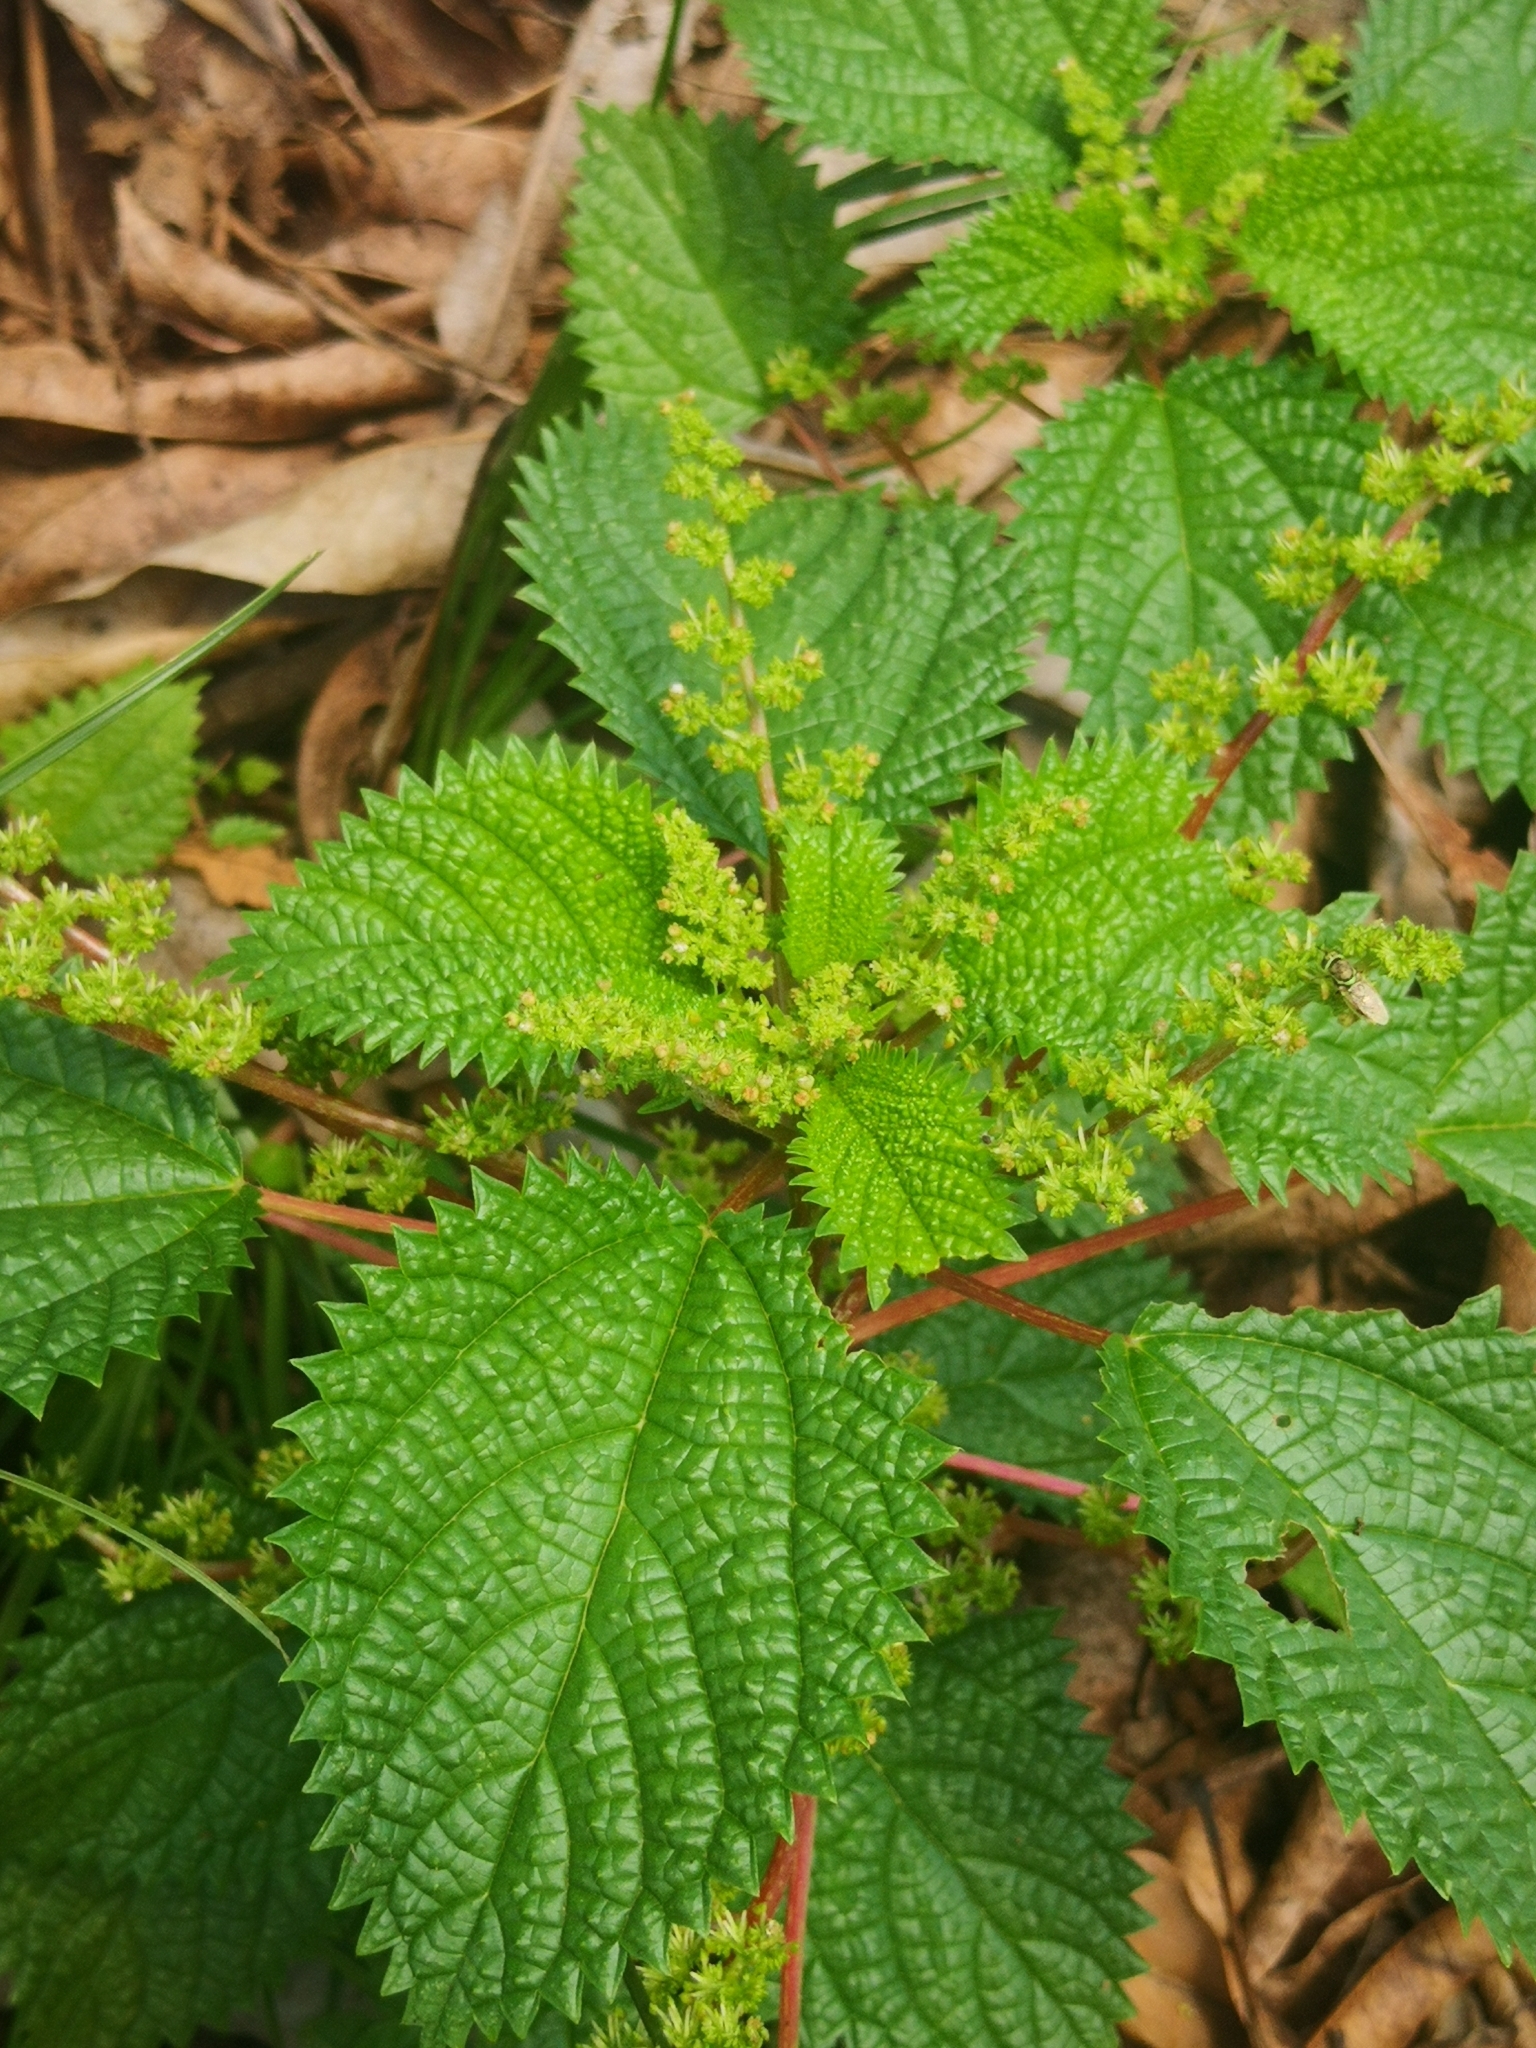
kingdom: Plantae
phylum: Tracheophyta
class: Magnoliopsida
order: Rosales
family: Urticaceae
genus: Laportea
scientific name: Laportea aestuans
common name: West indian woodnettle
